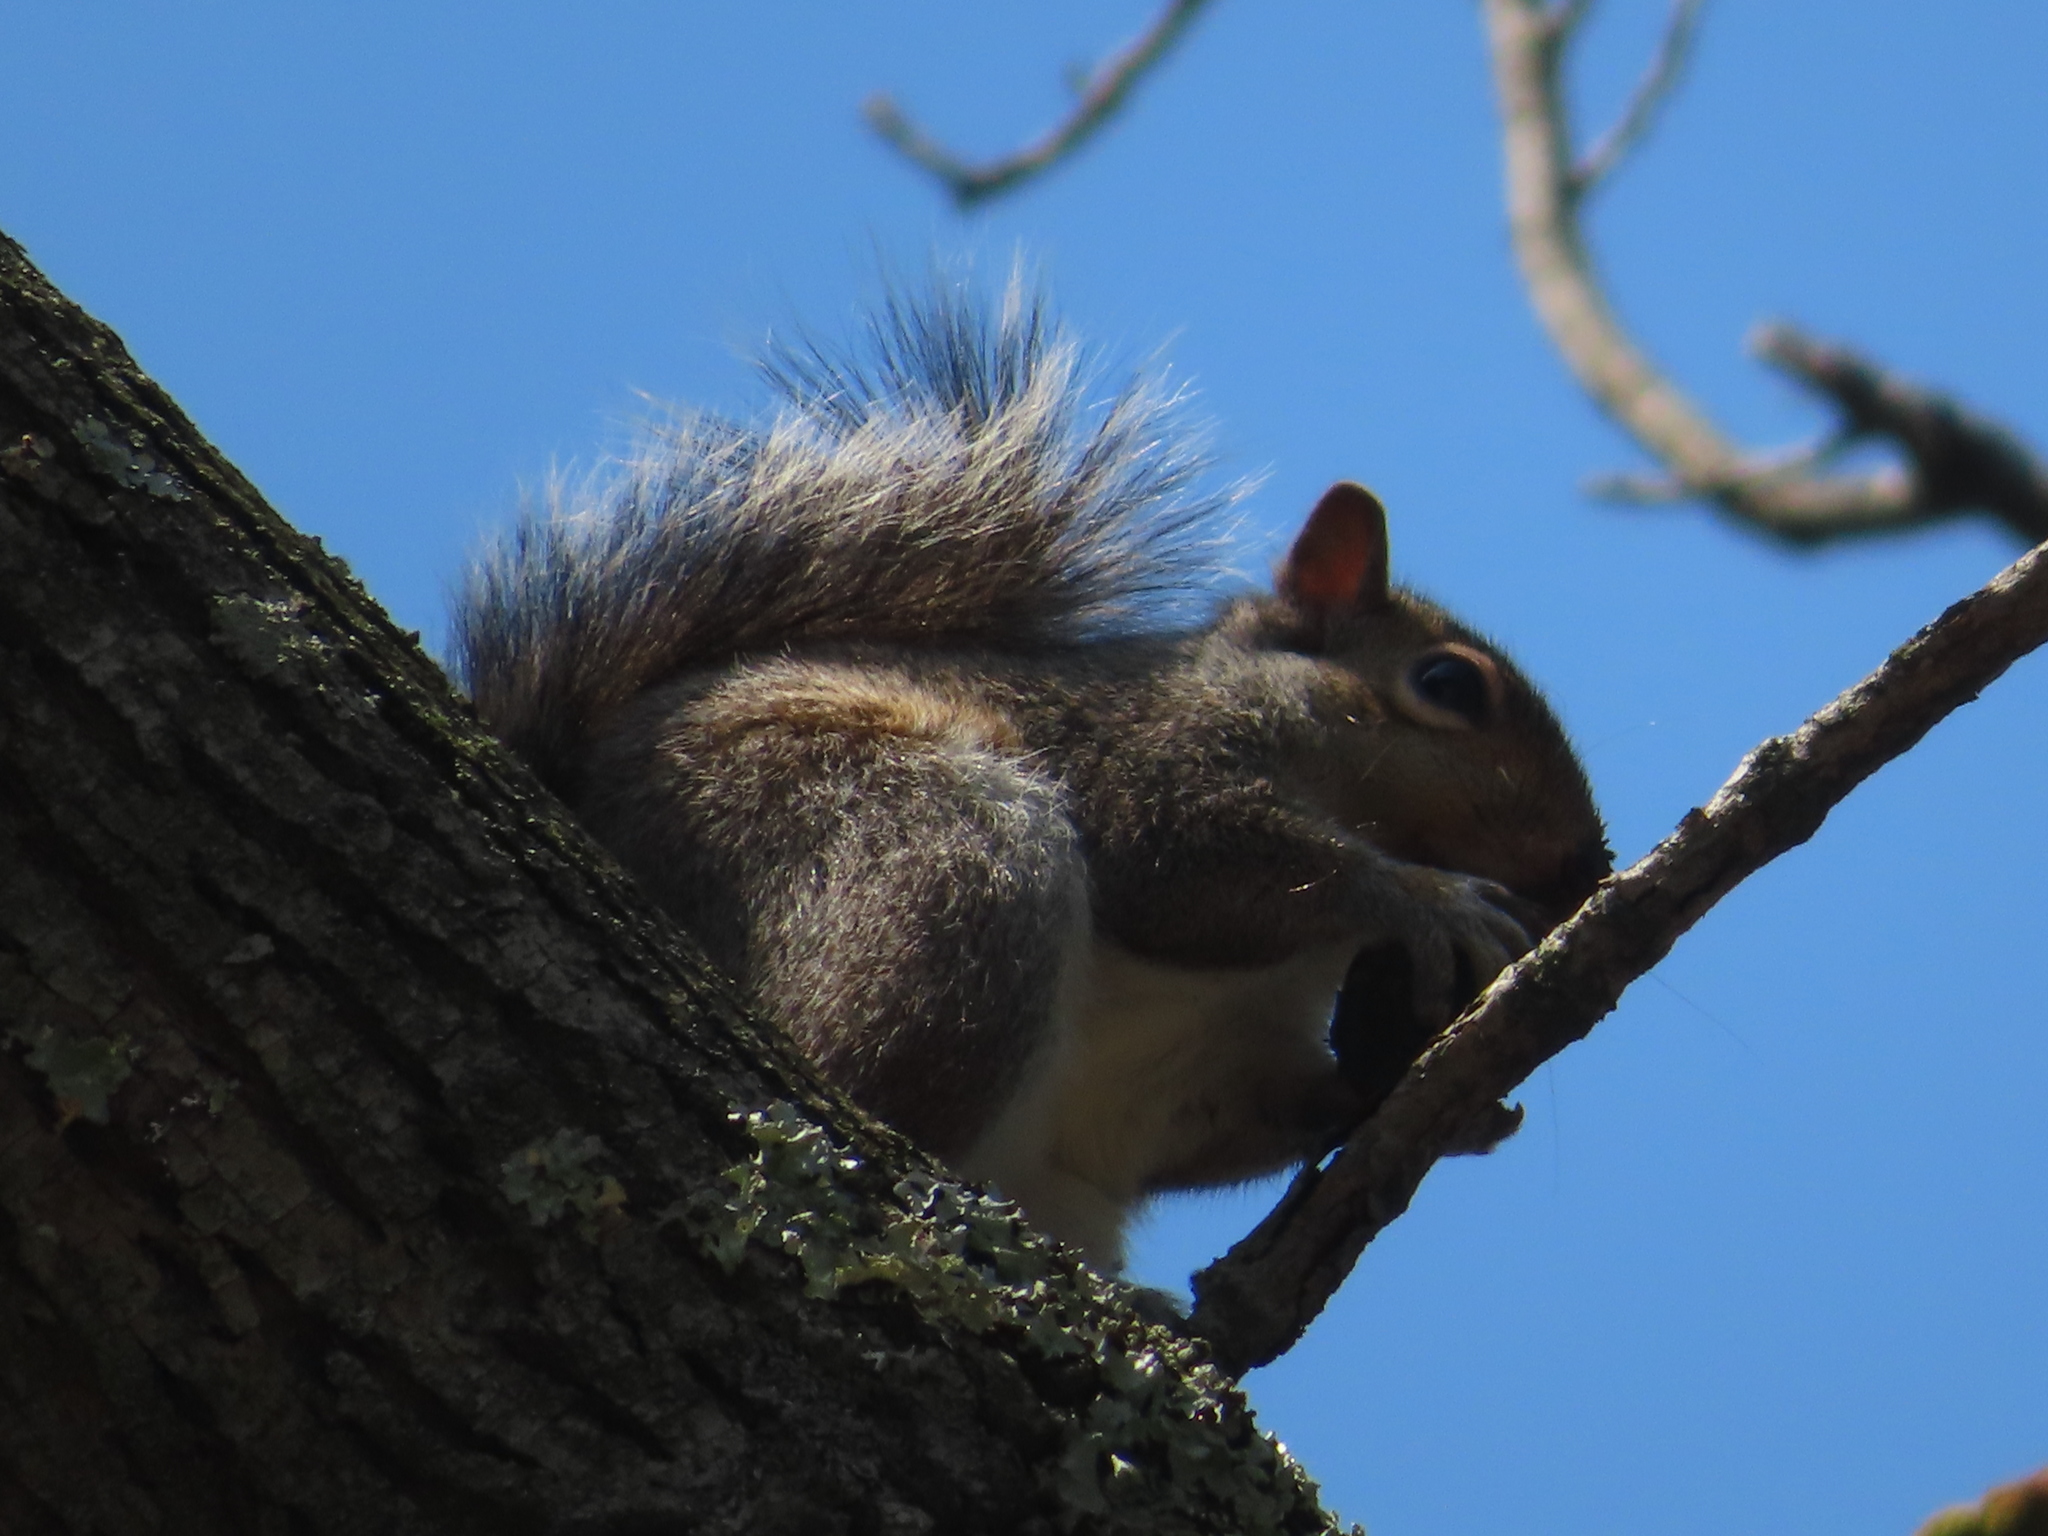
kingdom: Animalia
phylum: Chordata
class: Mammalia
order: Rodentia
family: Sciuridae
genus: Sciurus
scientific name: Sciurus carolinensis
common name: Eastern gray squirrel
